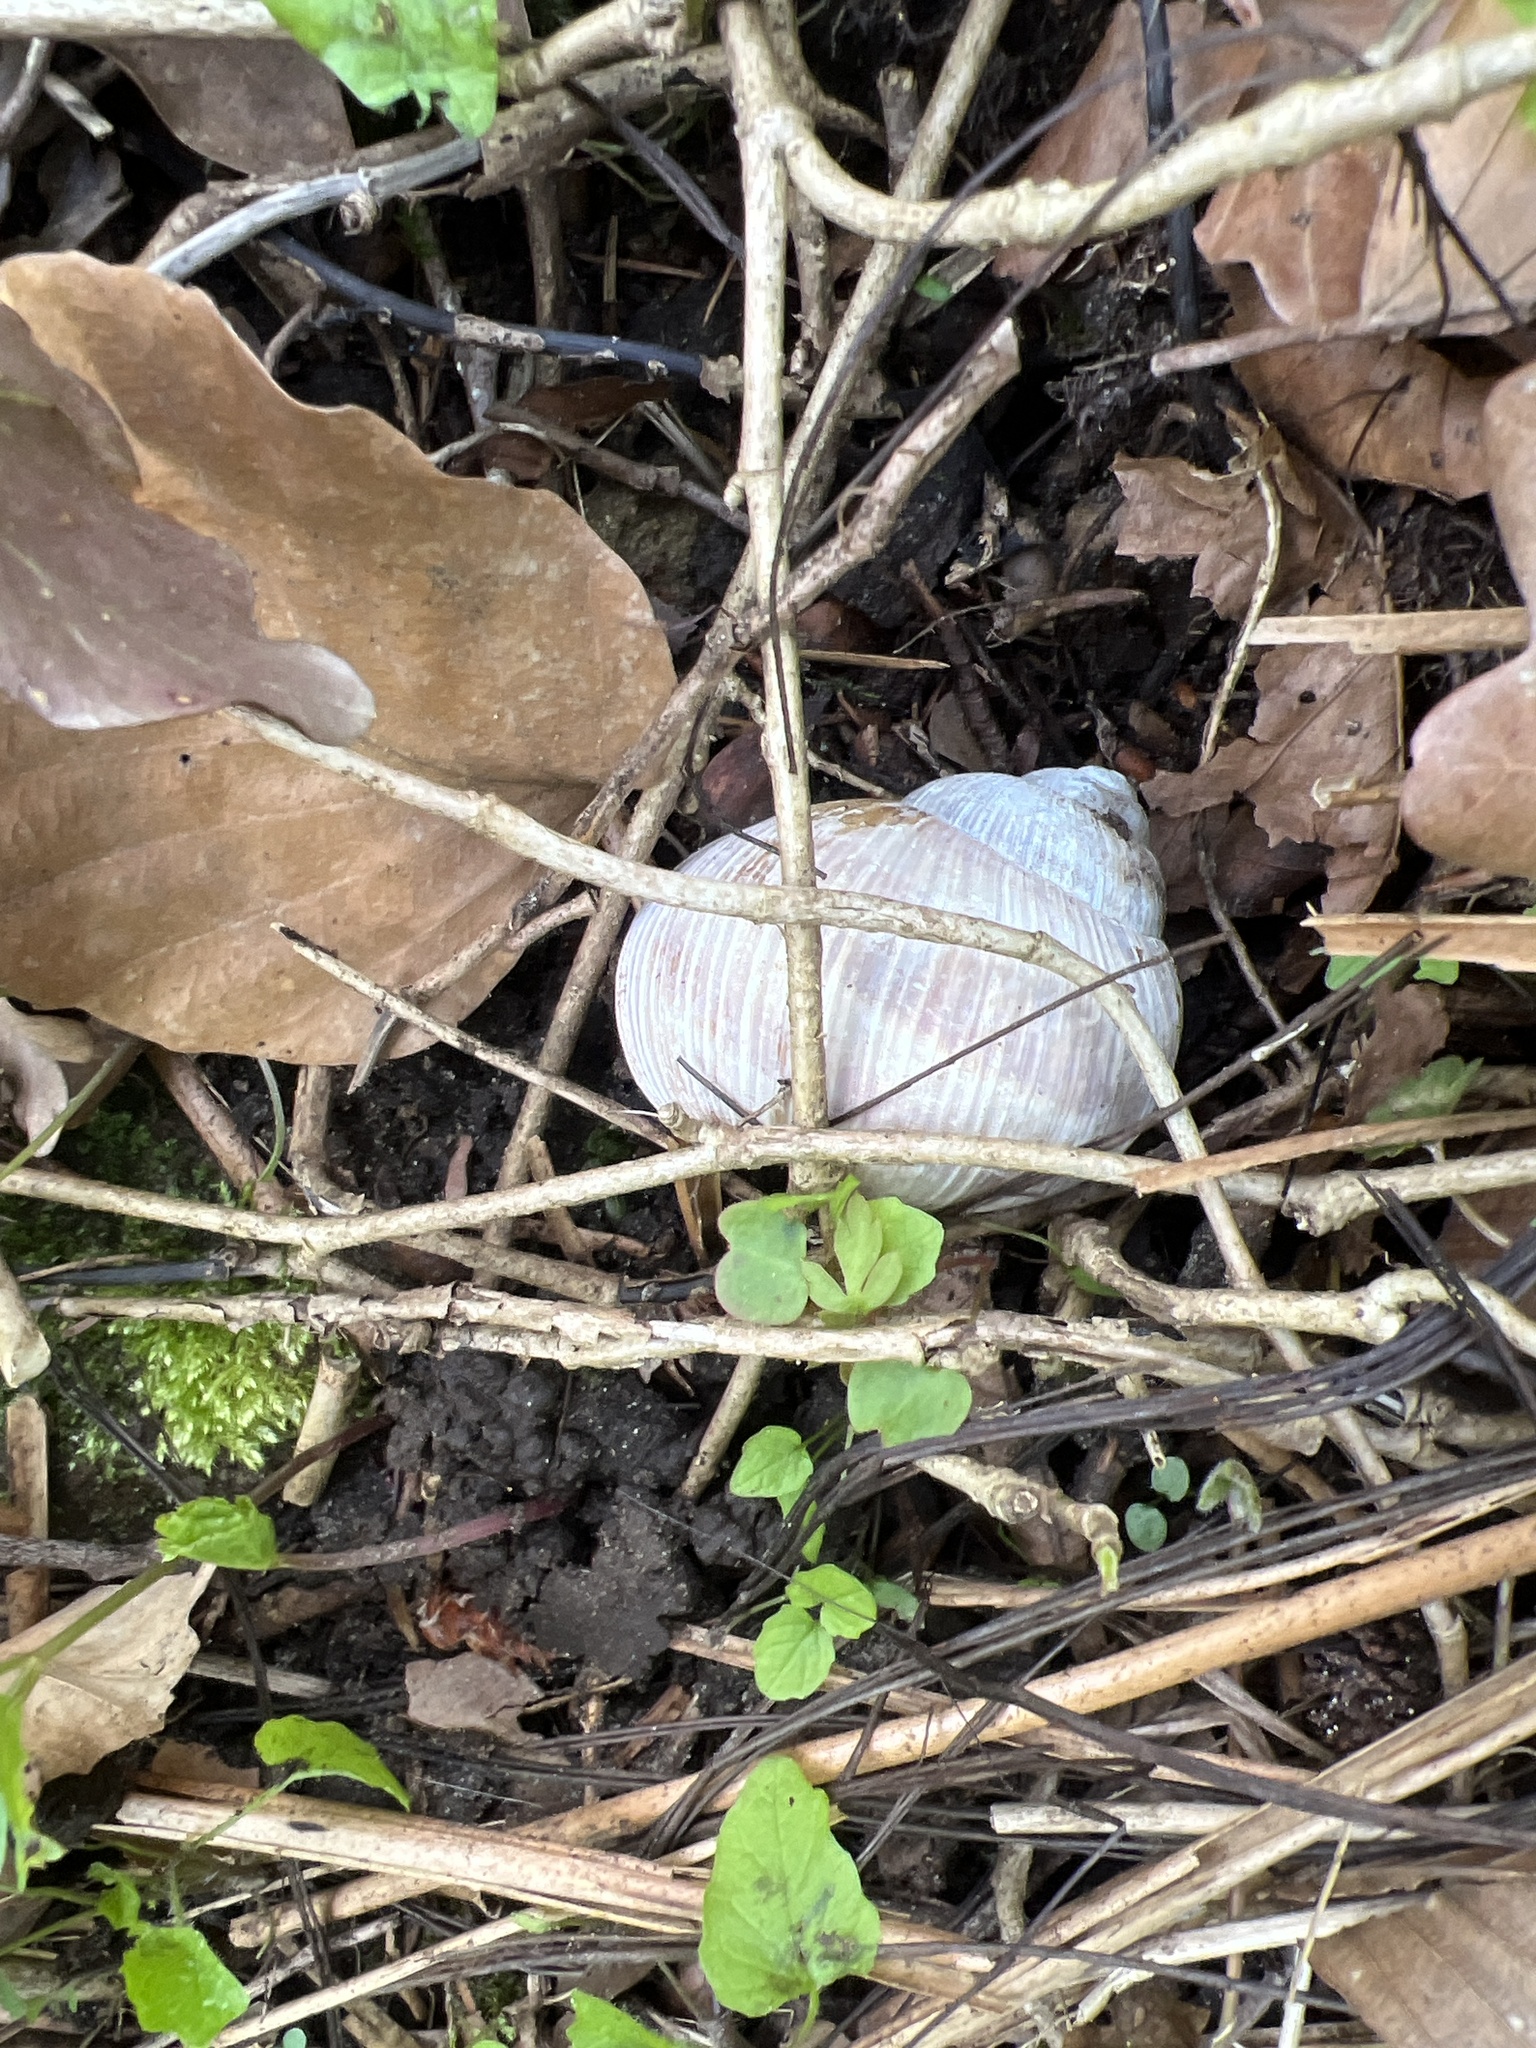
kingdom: Animalia
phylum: Mollusca
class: Gastropoda
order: Stylommatophora
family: Helicidae
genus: Helix
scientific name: Helix pomatia
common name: Roman snail
